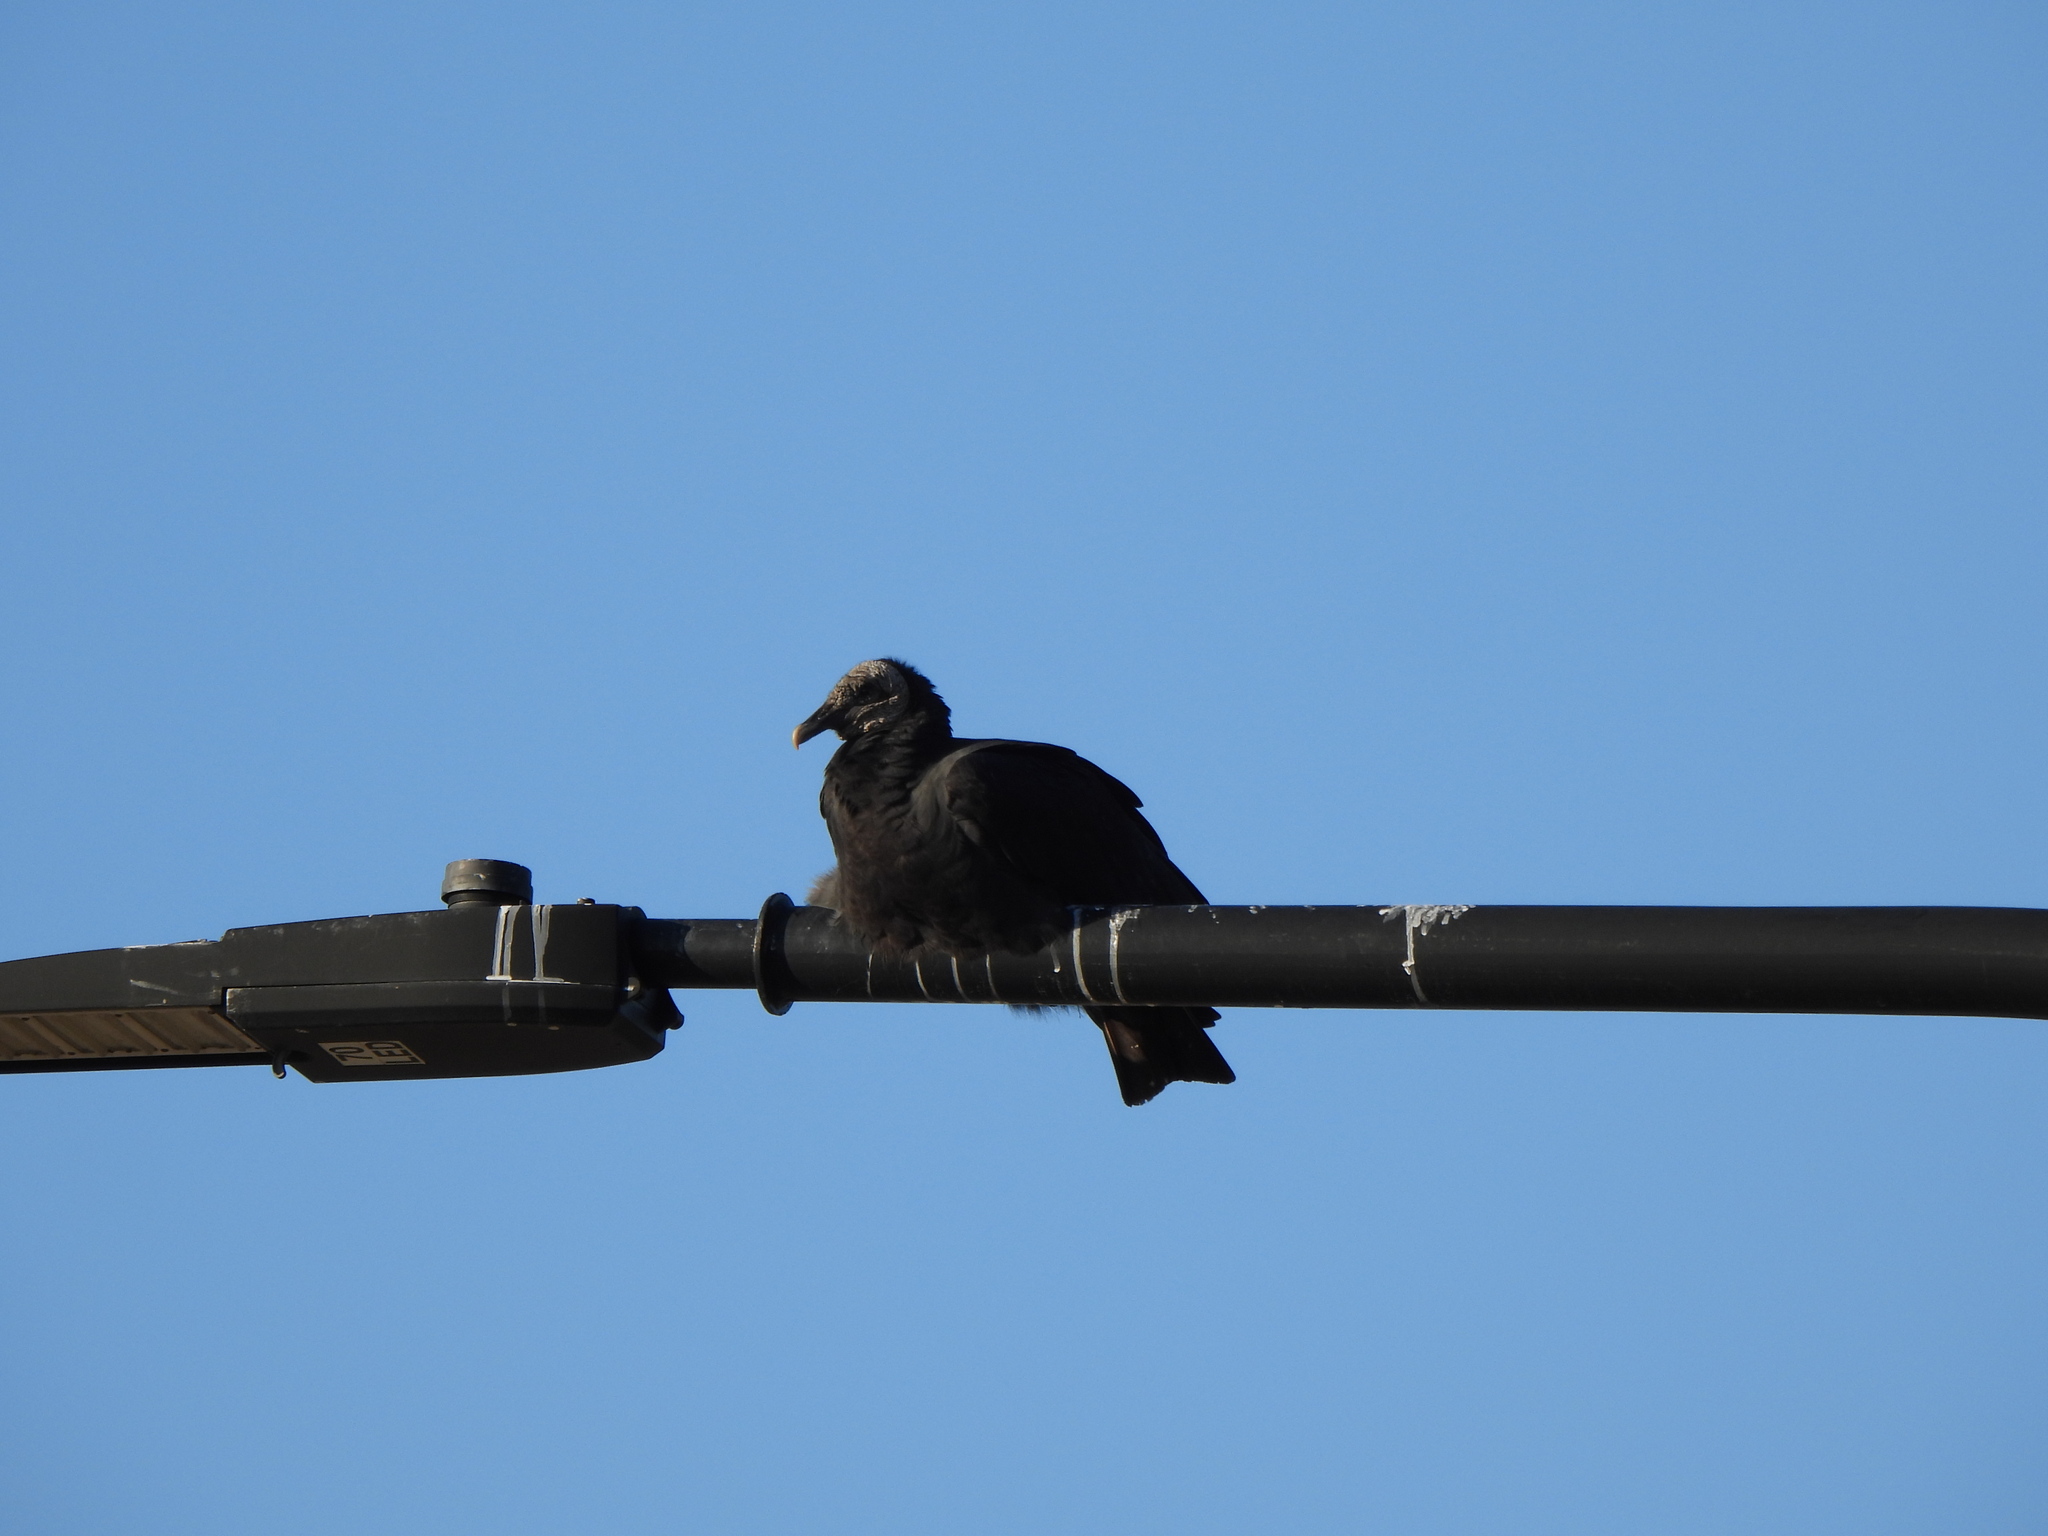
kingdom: Animalia
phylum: Chordata
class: Aves
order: Accipitriformes
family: Cathartidae
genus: Coragyps
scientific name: Coragyps atratus
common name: Black vulture
